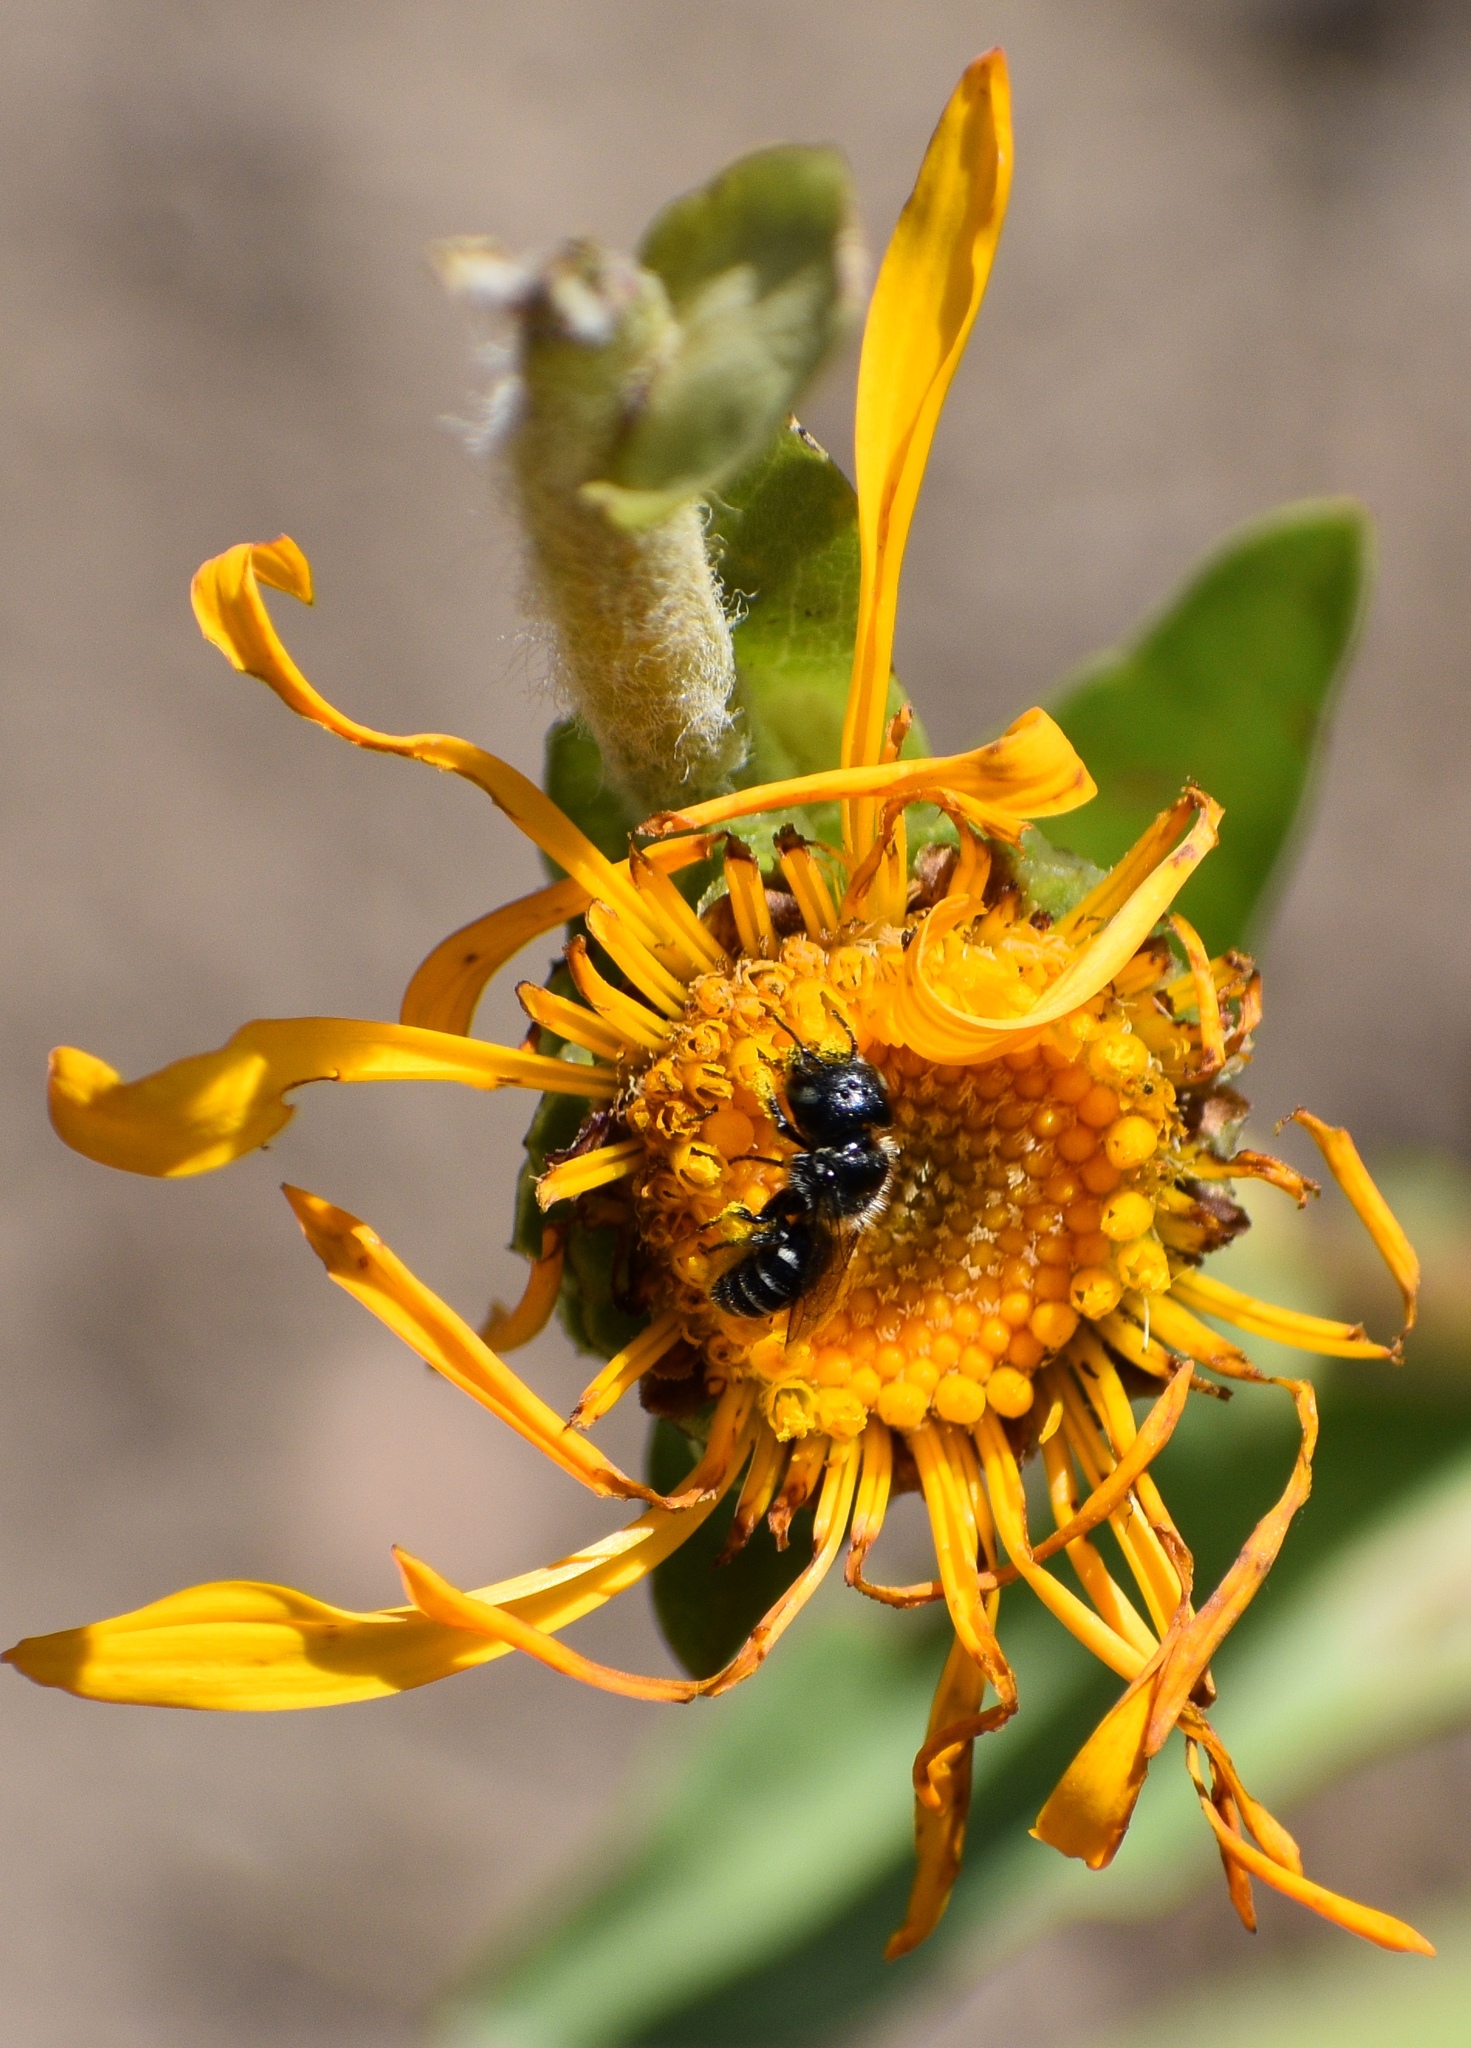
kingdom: Animalia
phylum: Arthropoda
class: Insecta
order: Hymenoptera
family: Megachilidae
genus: Ashmeadiella
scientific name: Ashmeadiella
